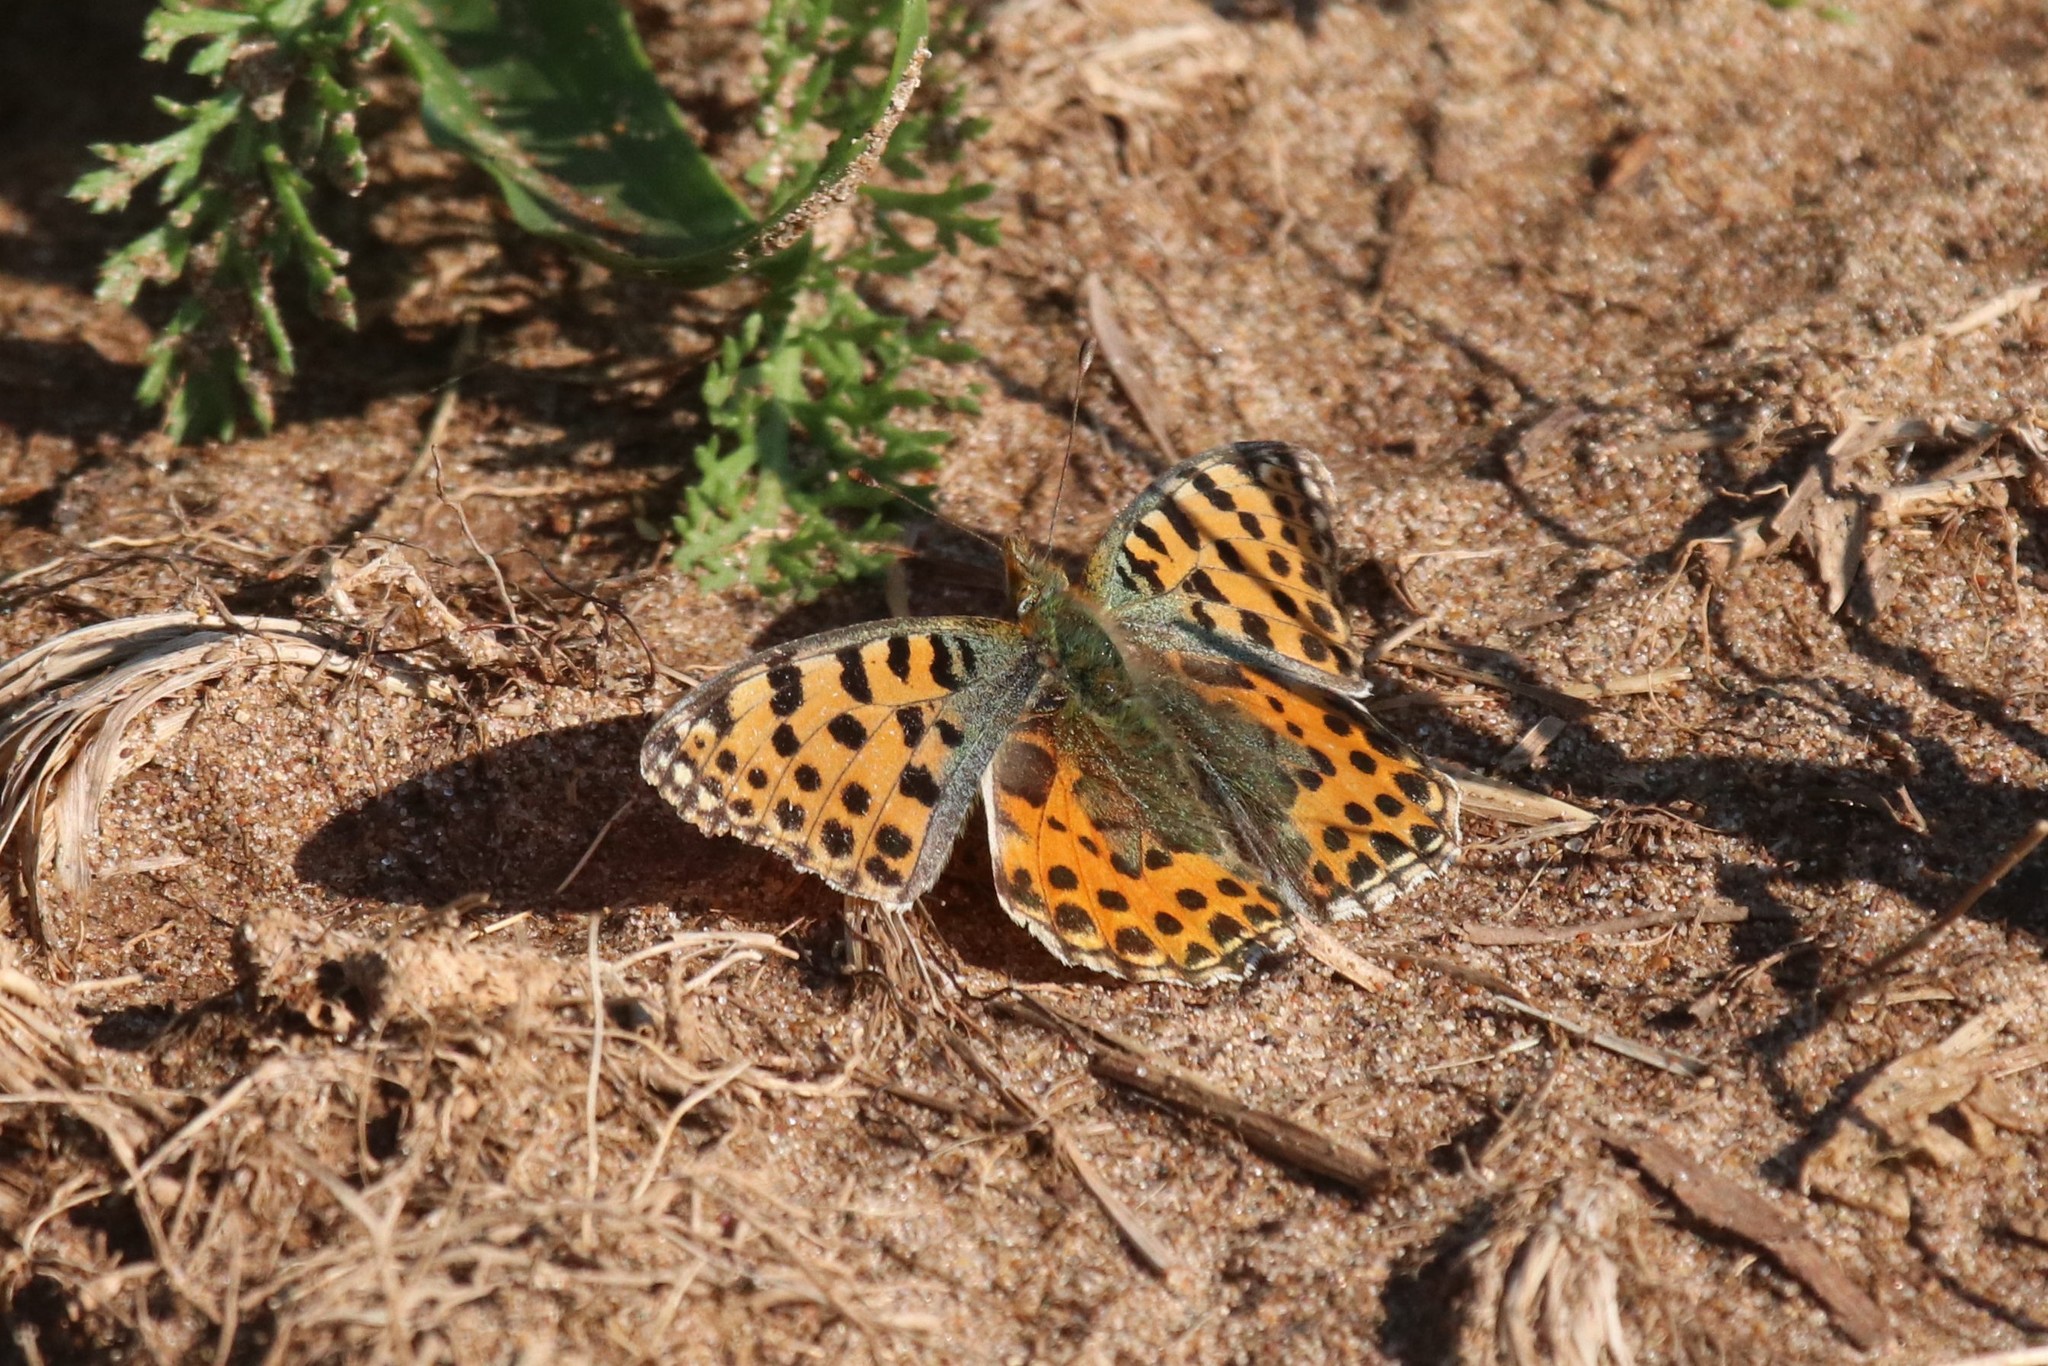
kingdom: Animalia
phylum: Arthropoda
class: Insecta
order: Lepidoptera
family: Nymphalidae
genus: Issoria
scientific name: Issoria lathonia
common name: Queen of spain fritillary
